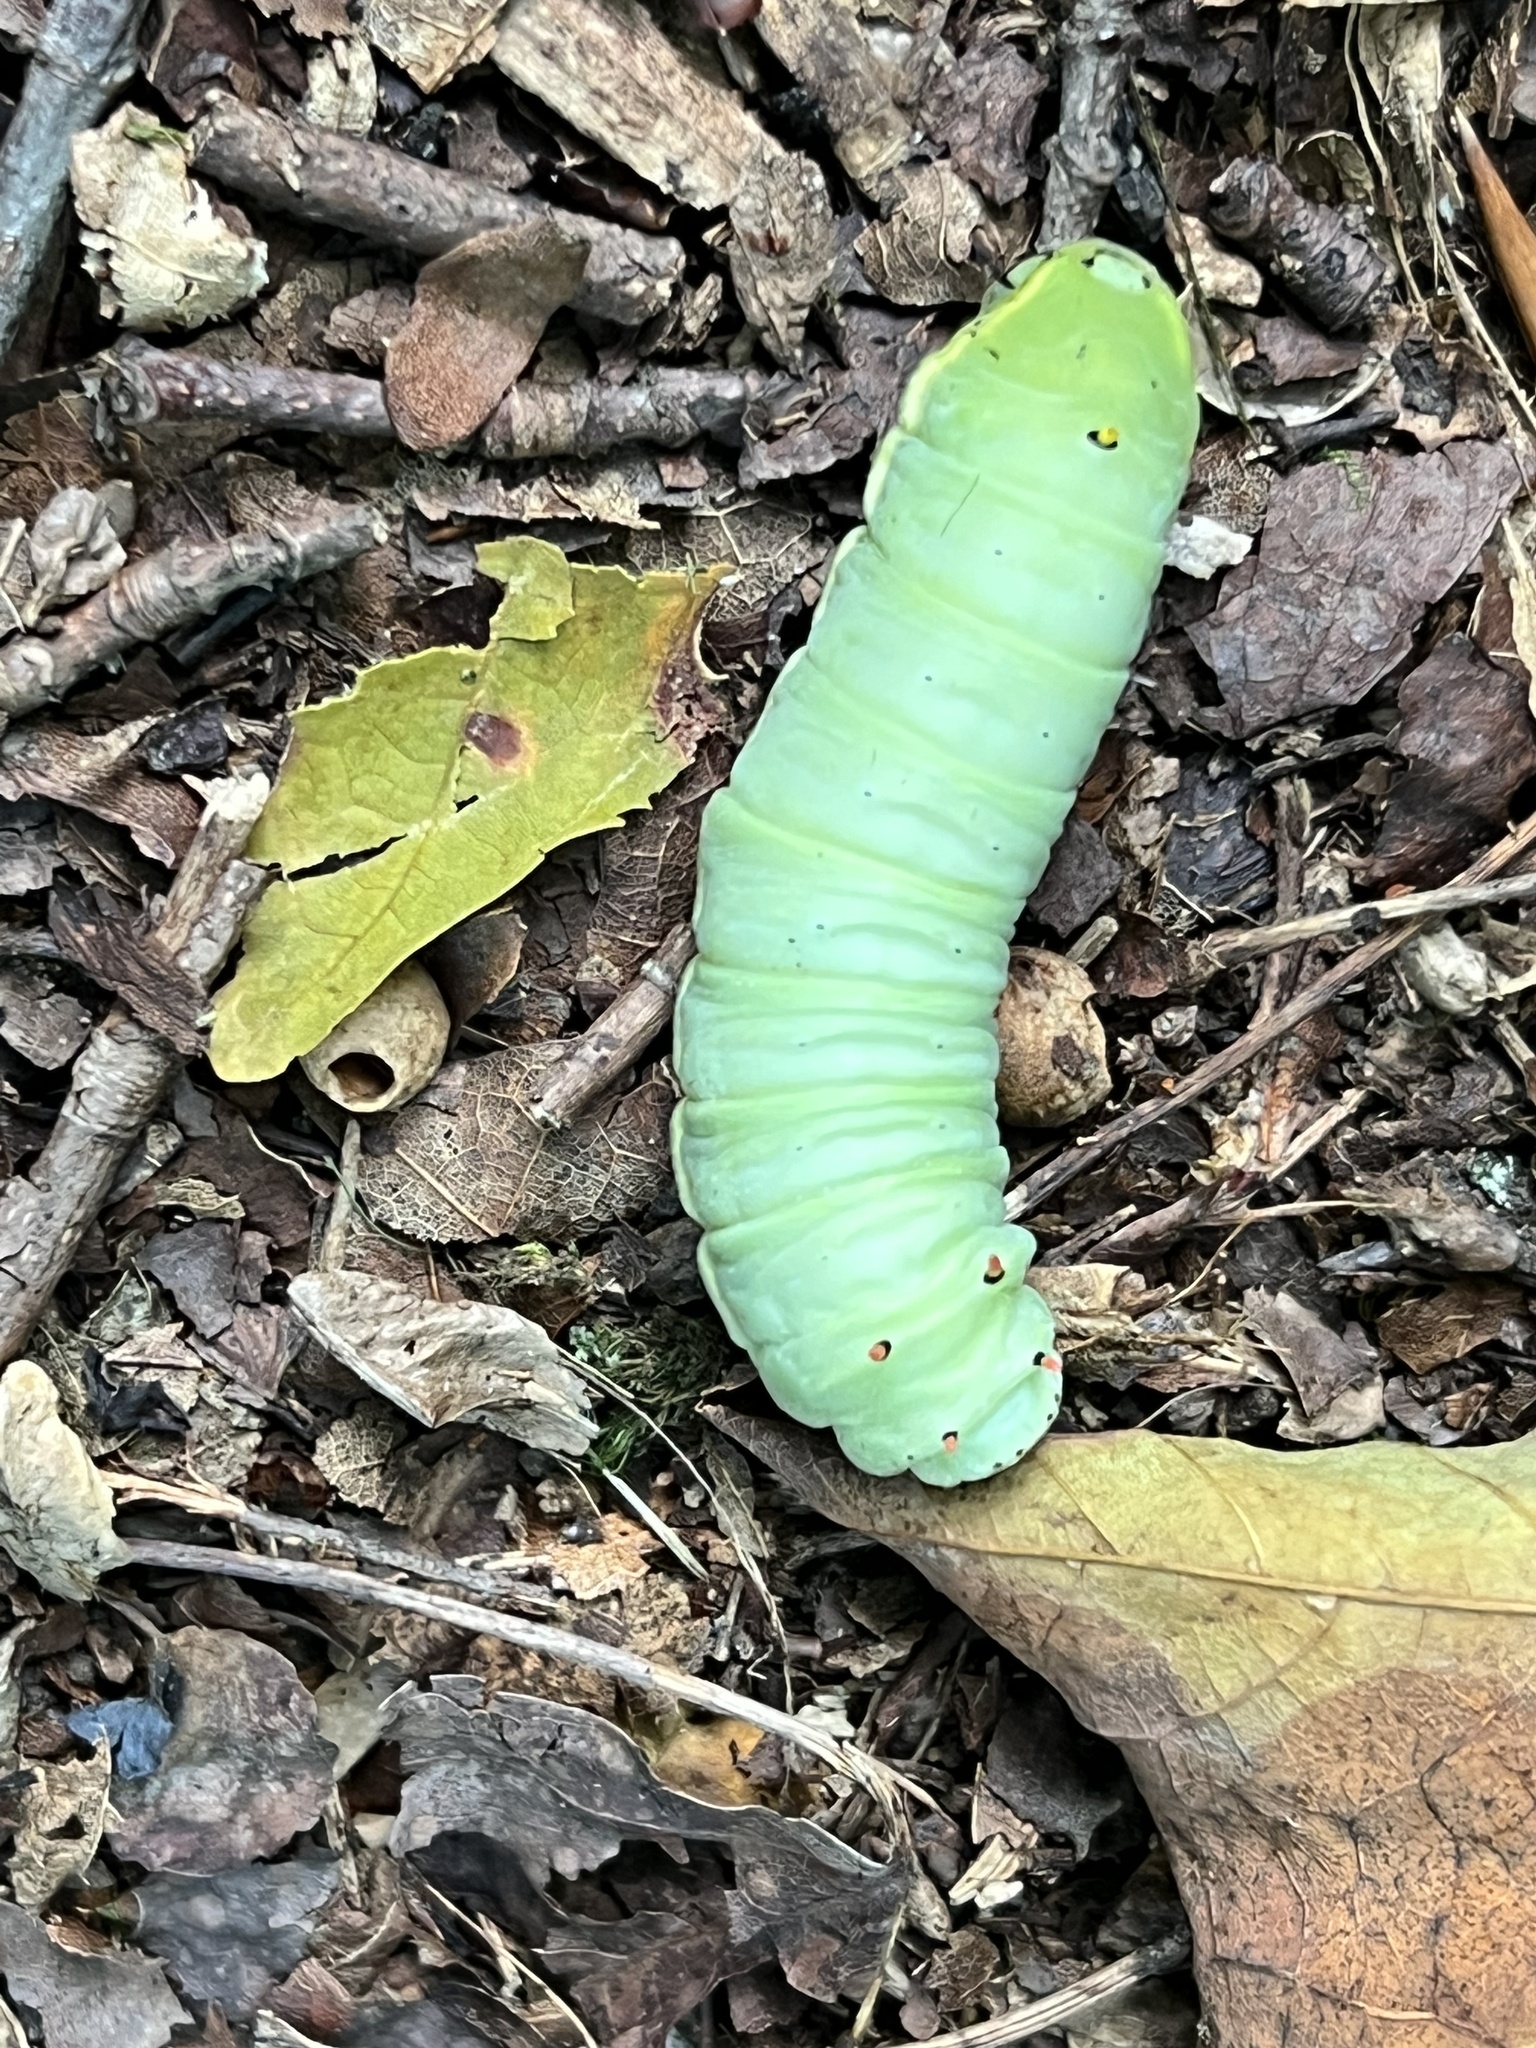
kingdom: Animalia
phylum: Arthropoda
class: Insecta
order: Lepidoptera
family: Saturniidae
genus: Callosamia
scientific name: Callosamia angulifera
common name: Tulip tree silkmoth
